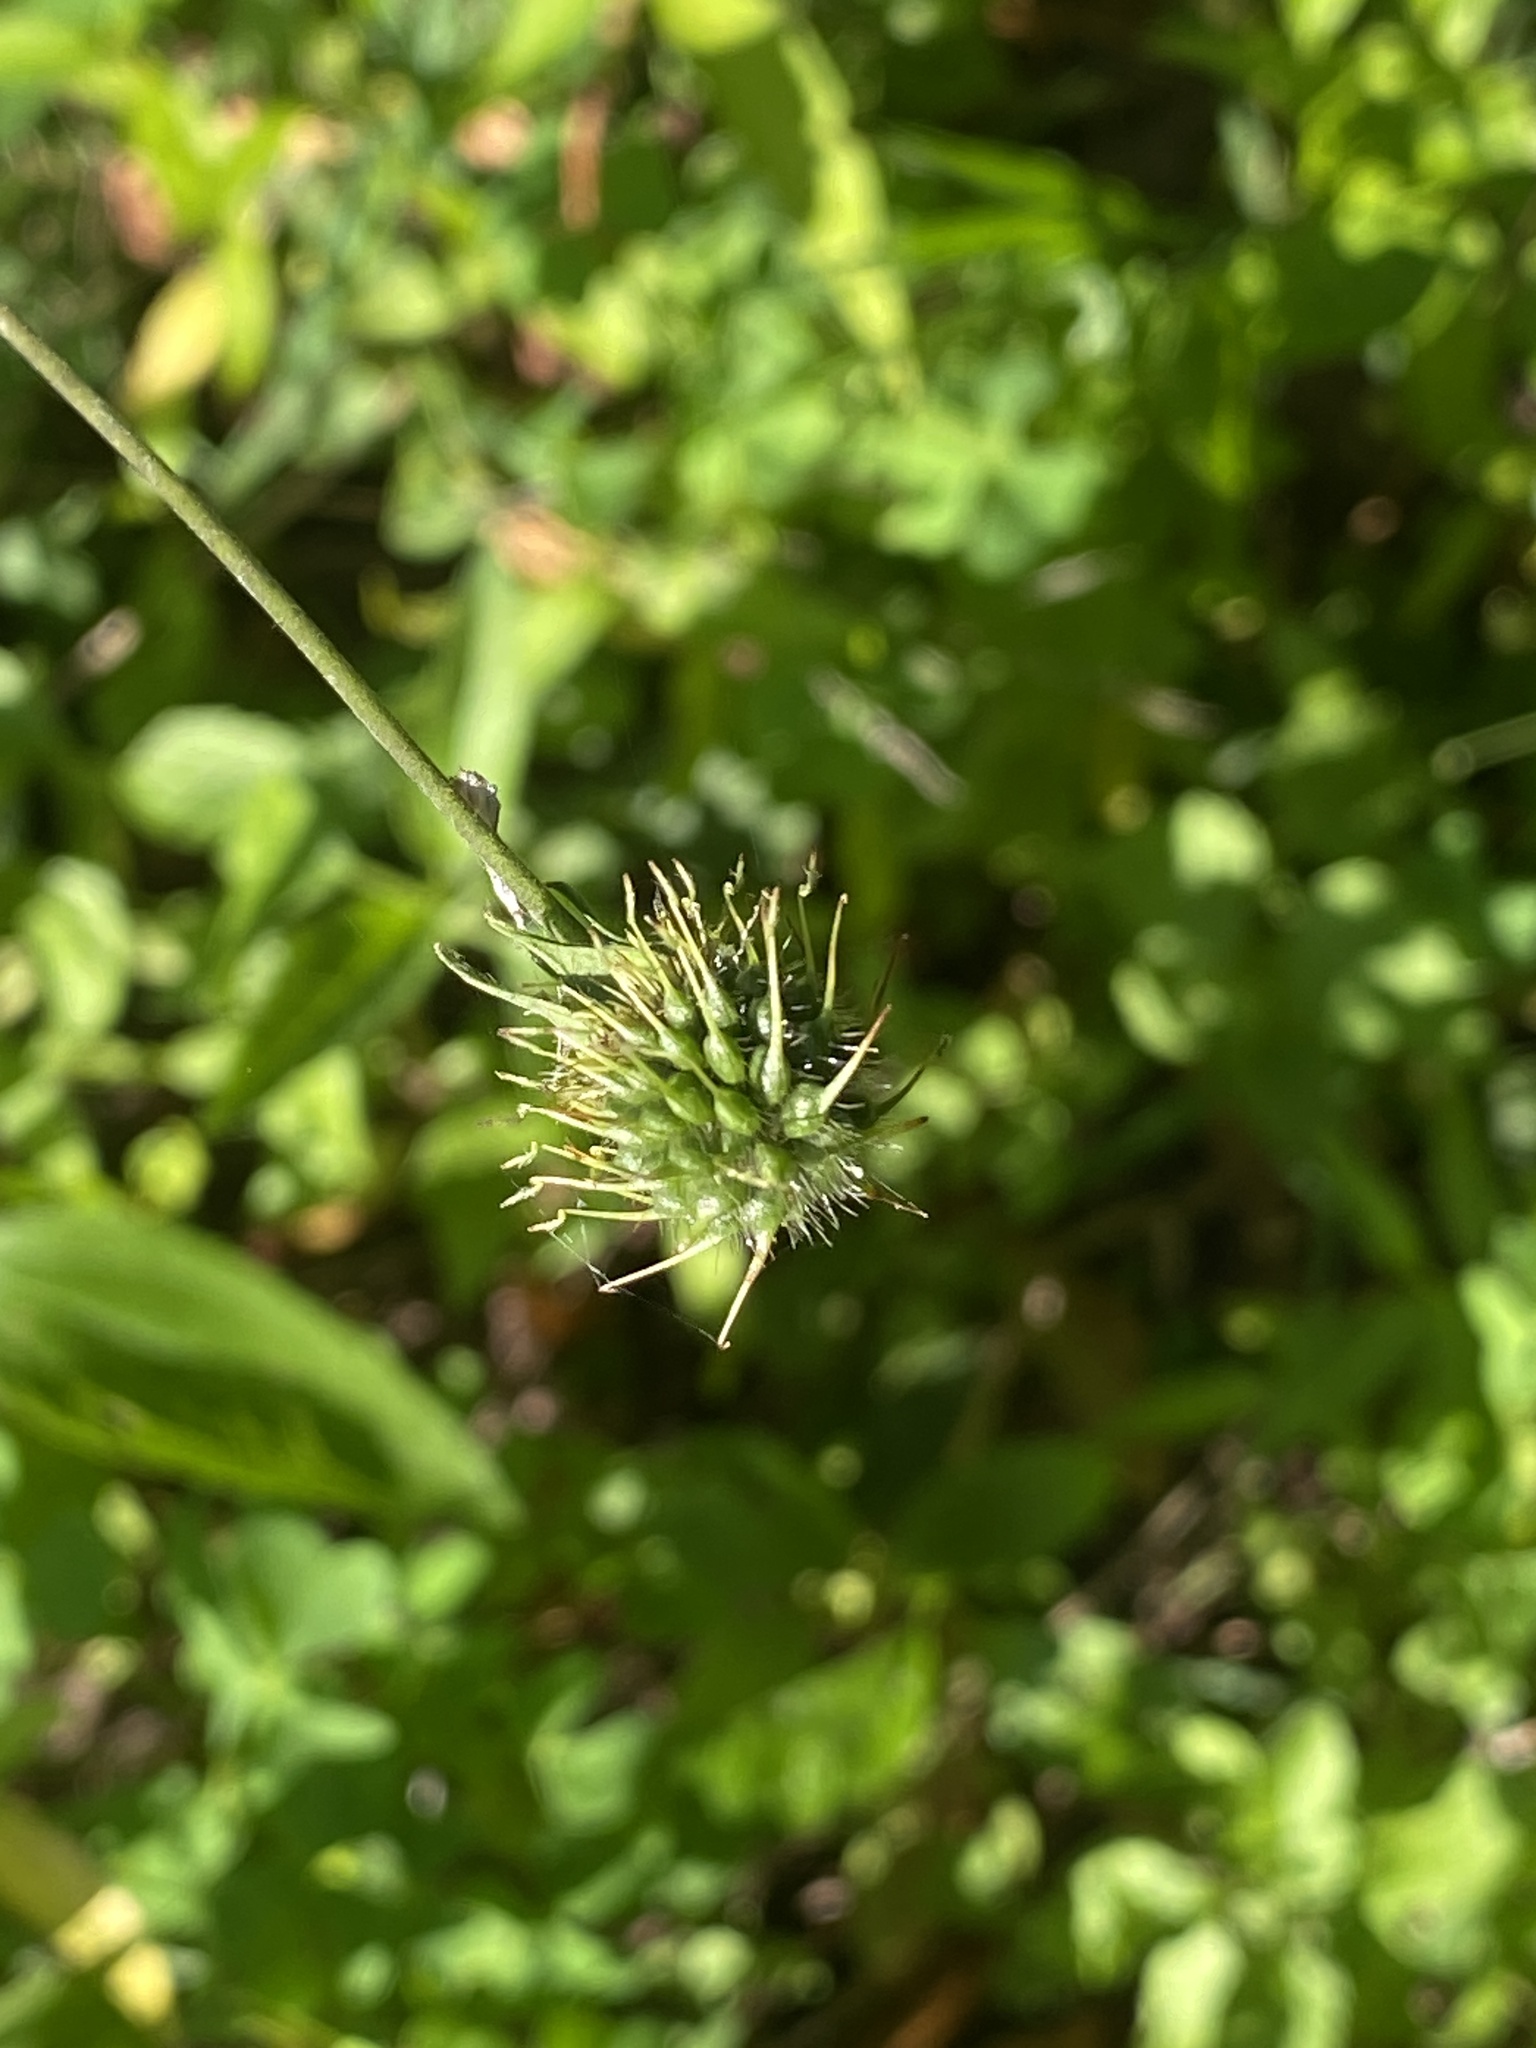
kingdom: Plantae
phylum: Tracheophyta
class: Magnoliopsida
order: Rosales
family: Rosaceae
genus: Geum
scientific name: Geum canadense
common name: White avens
